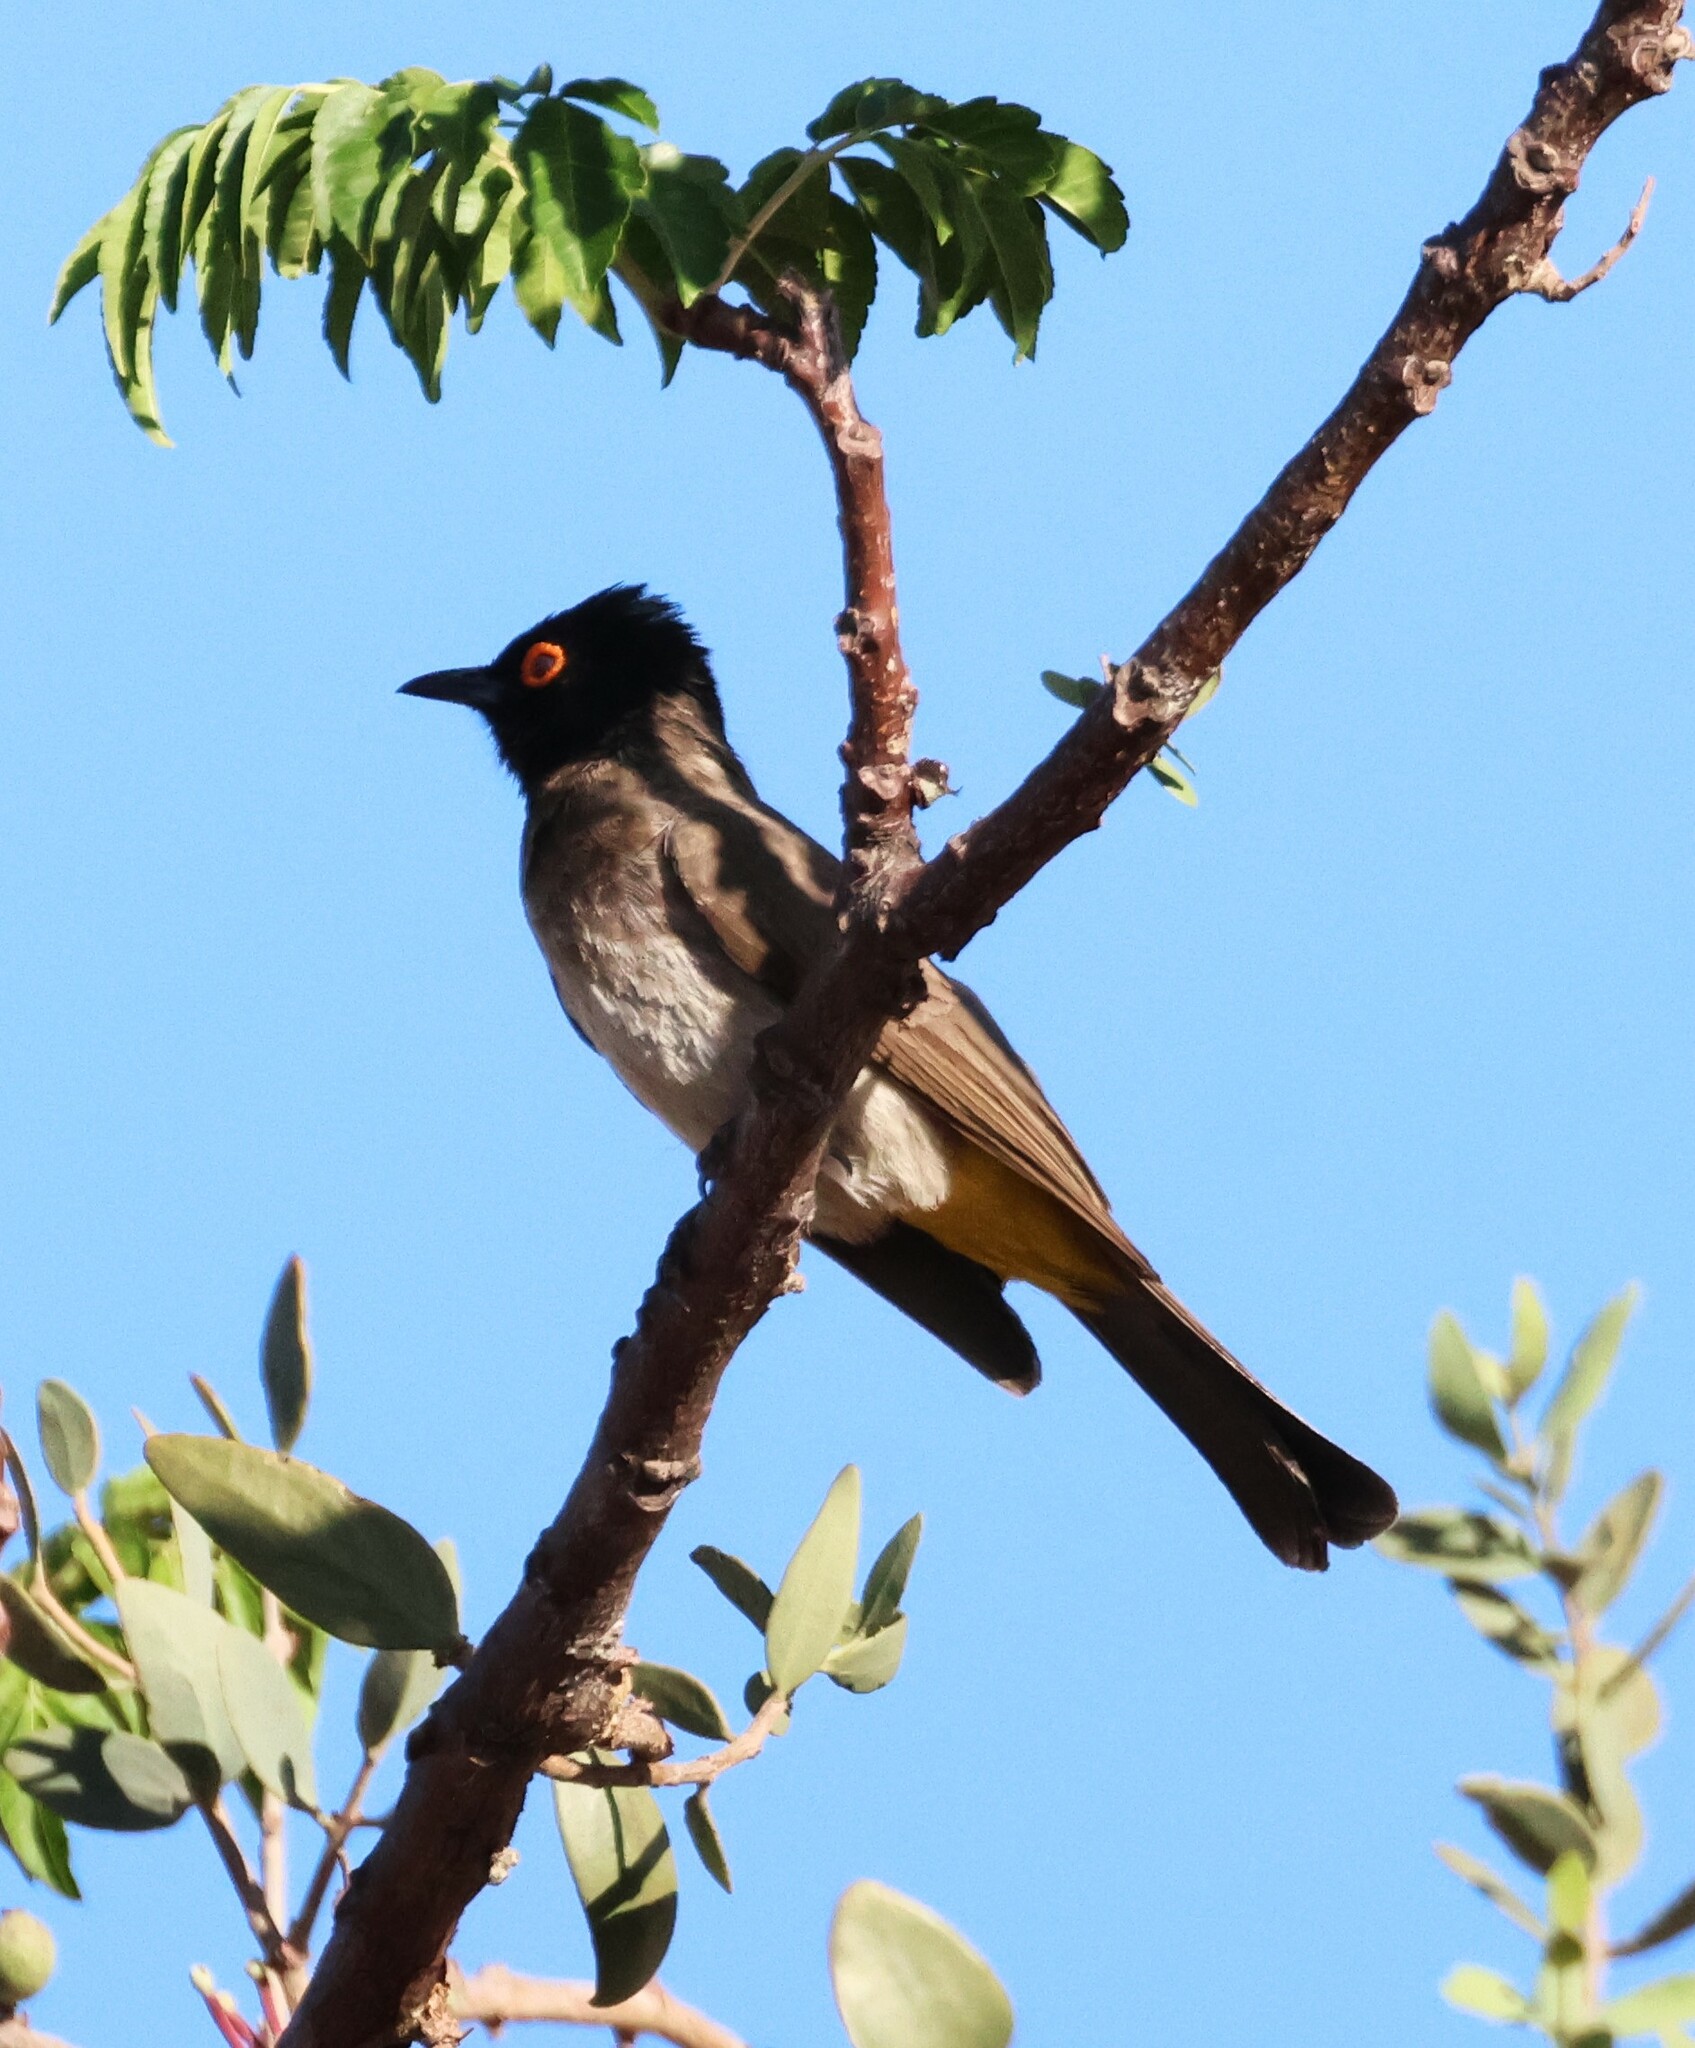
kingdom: Animalia
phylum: Chordata
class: Aves
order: Passeriformes
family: Pycnonotidae
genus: Pycnonotus
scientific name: Pycnonotus nigricans
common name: African red-eyed bulbul
